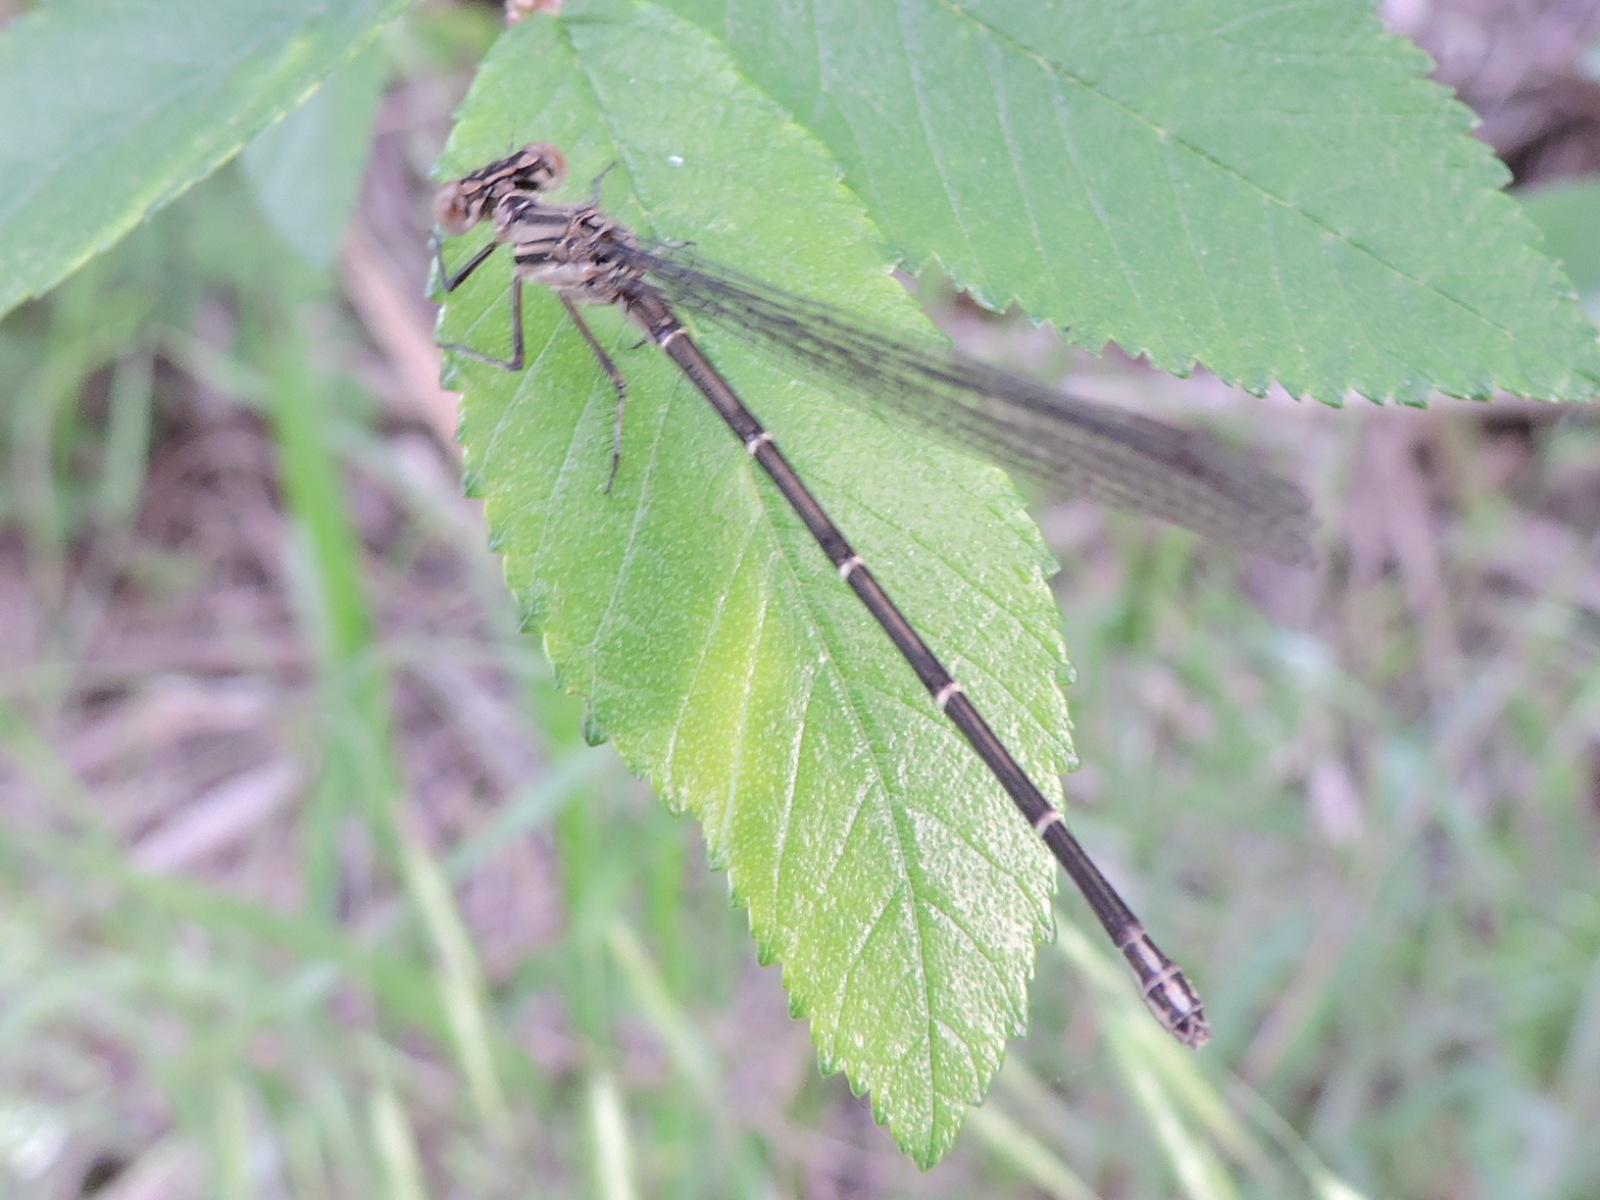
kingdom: Animalia
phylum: Arthropoda
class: Insecta
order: Odonata
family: Coenagrionidae
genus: Argia
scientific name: Argia translata
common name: Dusky dancer
